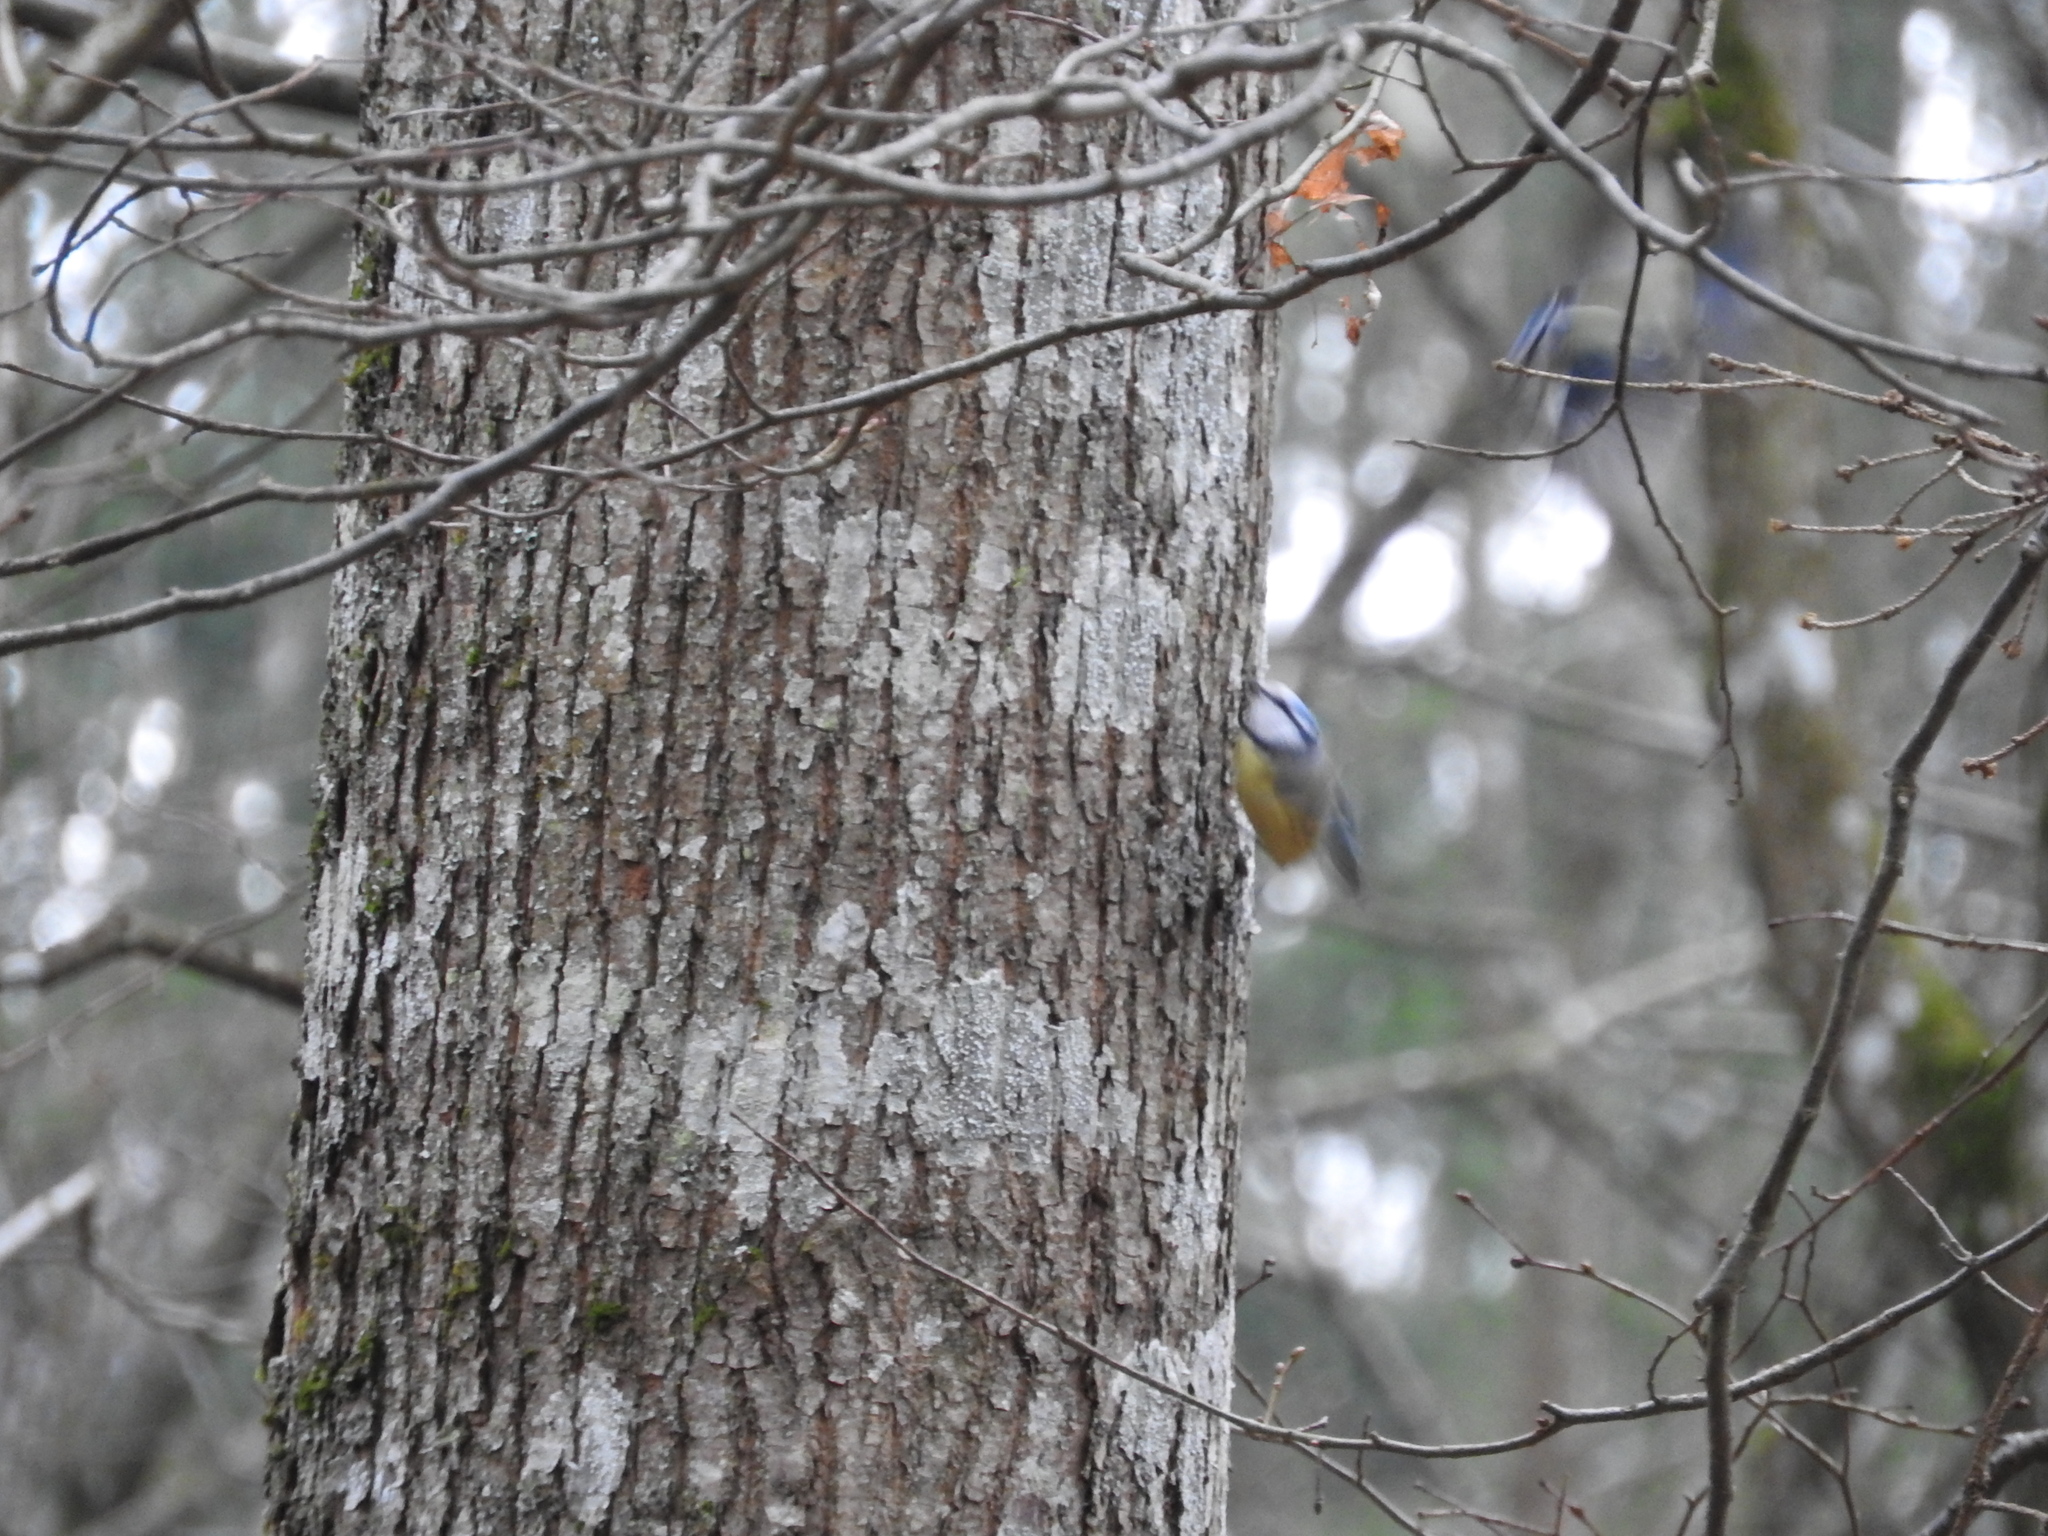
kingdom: Animalia
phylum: Chordata
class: Aves
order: Passeriformes
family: Paridae
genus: Cyanistes
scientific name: Cyanistes caeruleus
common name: Eurasian blue tit
